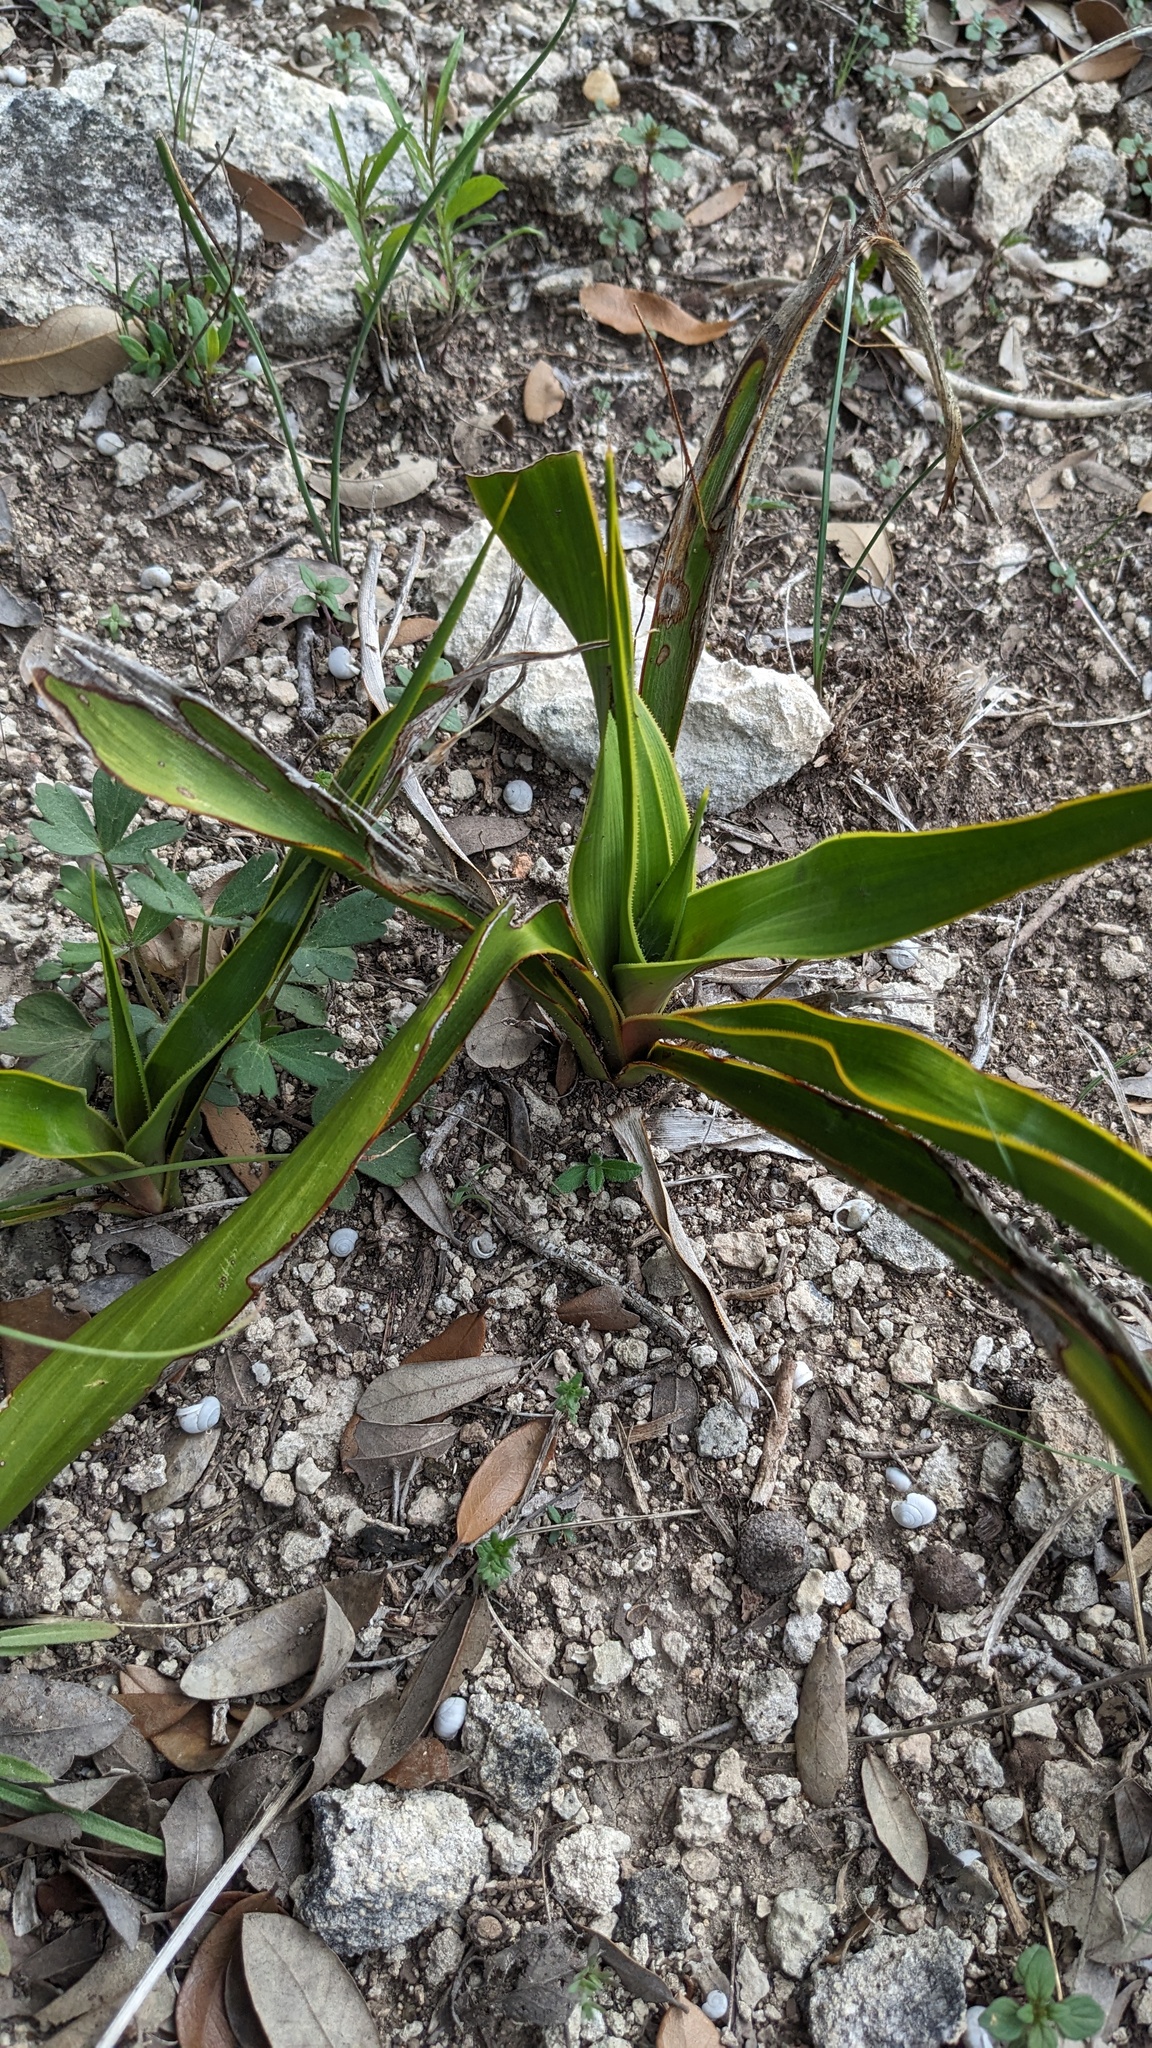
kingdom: Plantae
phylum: Tracheophyta
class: Liliopsida
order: Asparagales
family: Asparagaceae
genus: Yucca
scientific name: Yucca rupicola
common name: Twisted-leaf spanish-dagger
